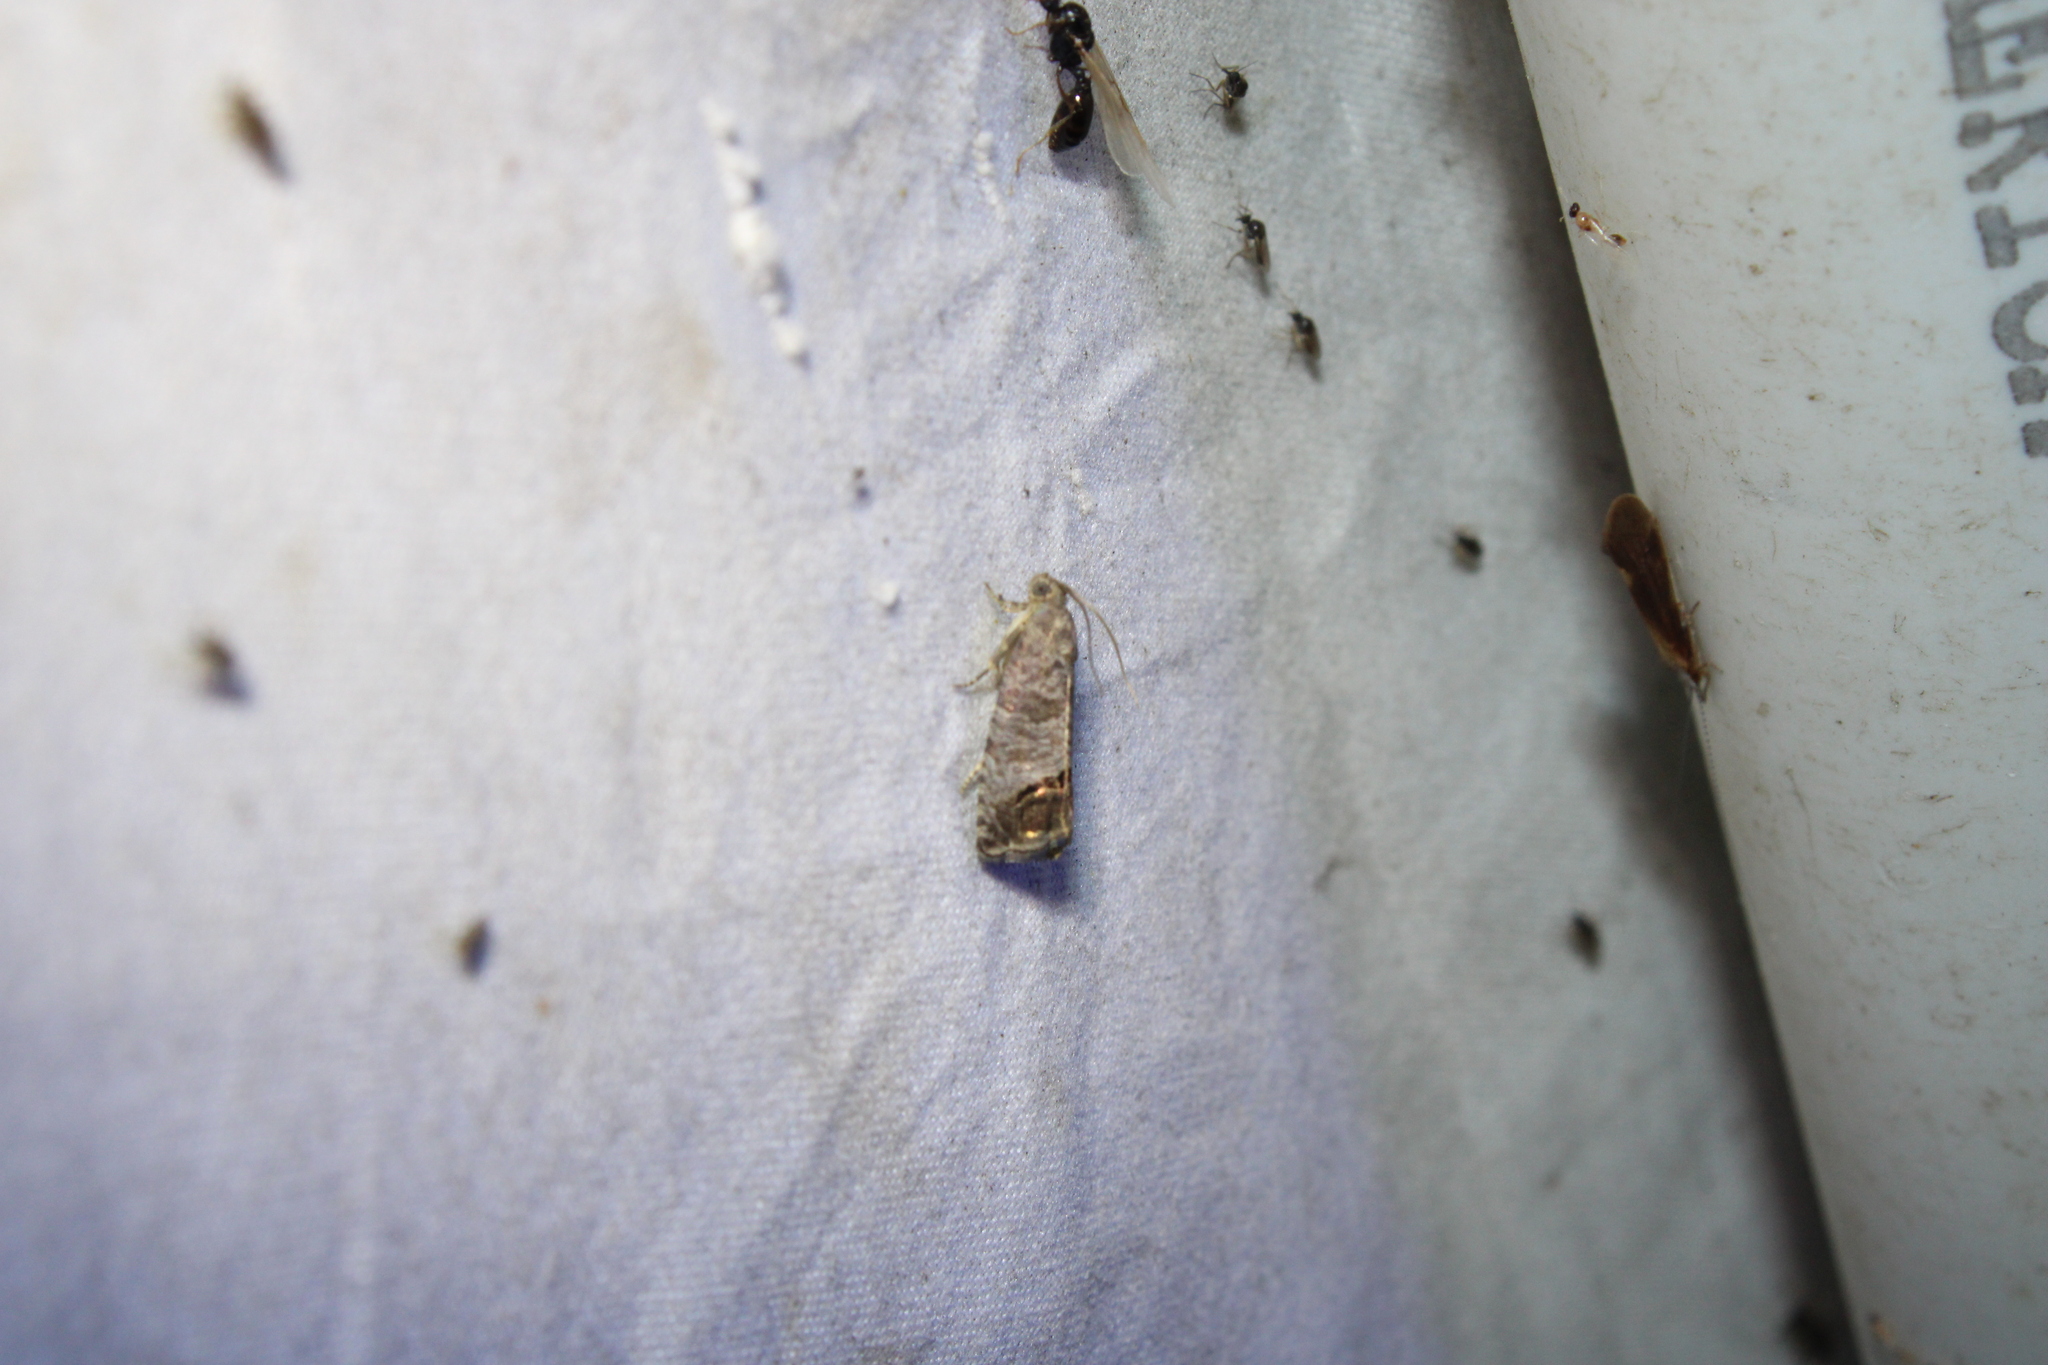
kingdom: Animalia
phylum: Arthropoda
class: Insecta
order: Lepidoptera
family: Tortricidae
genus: Cydia
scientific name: Cydia pomonella
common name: Codling moth
